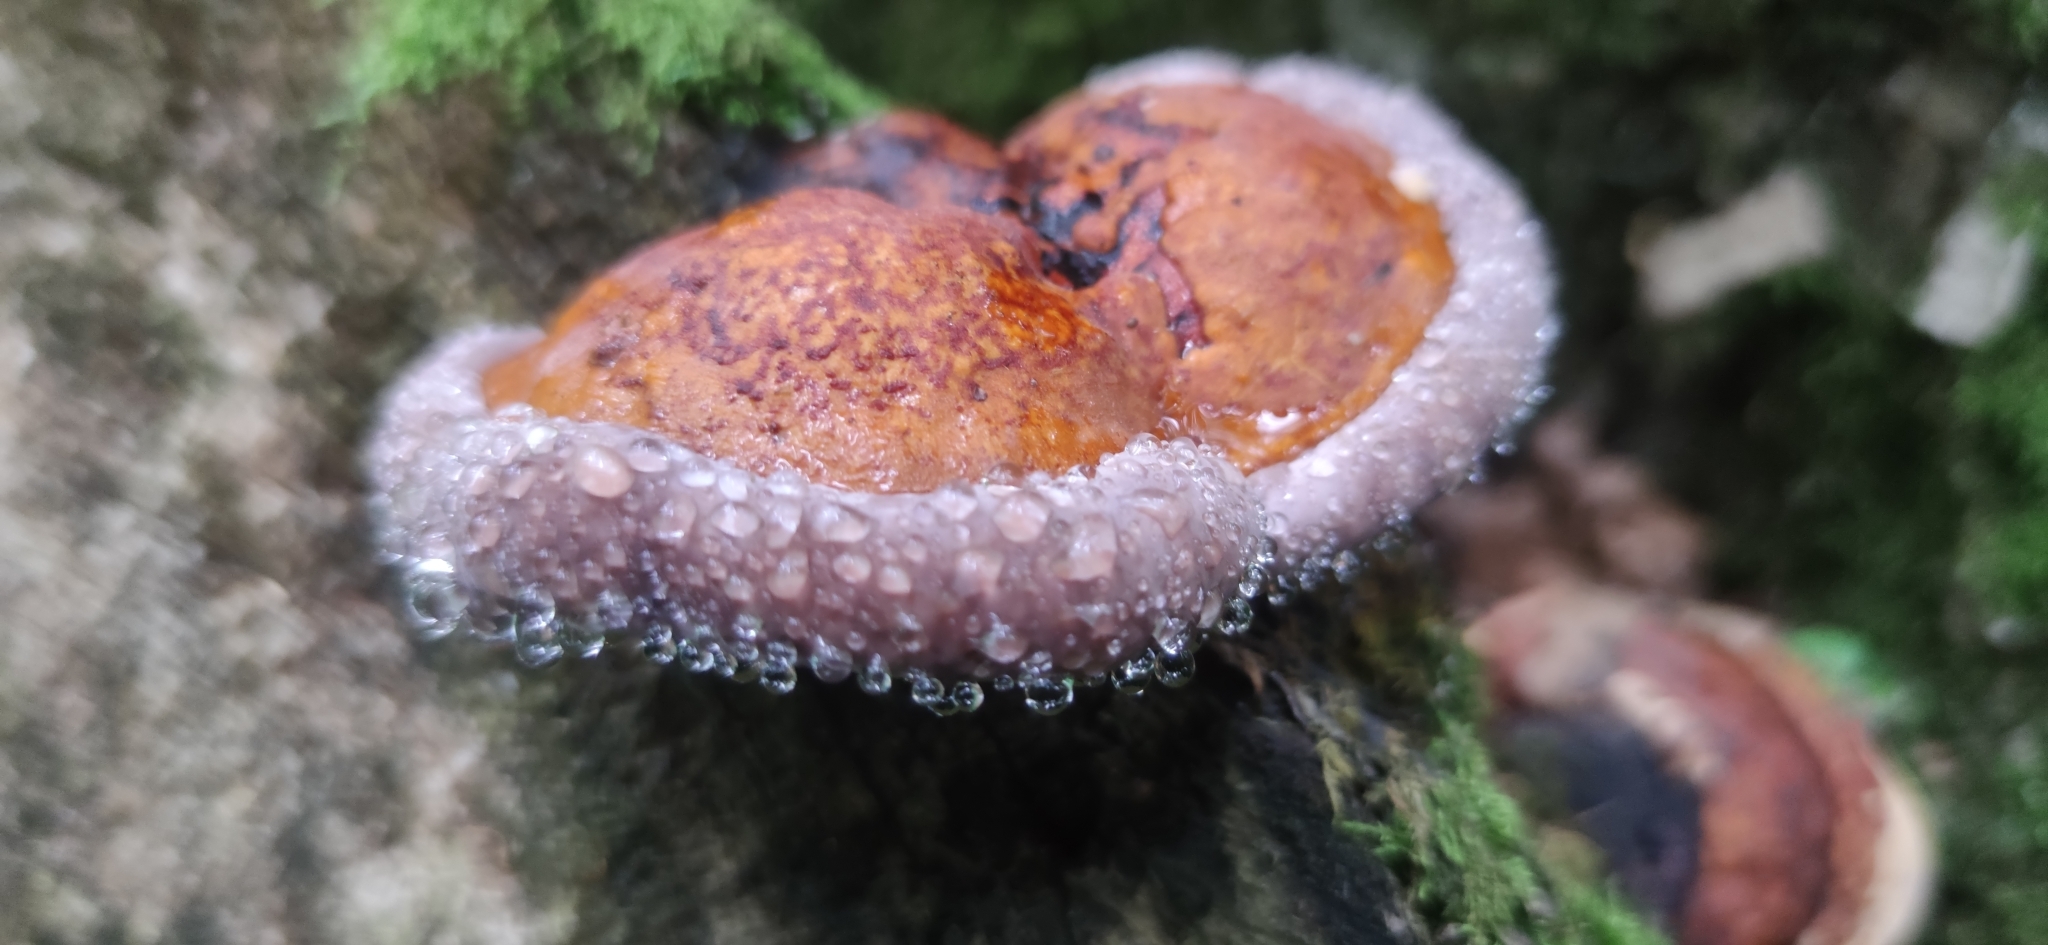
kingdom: Fungi
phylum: Basidiomycota
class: Agaricomycetes
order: Polyporales
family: Fomitopsidaceae
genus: Fomitopsis
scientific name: Fomitopsis pinicola
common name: Red-belted bracket
